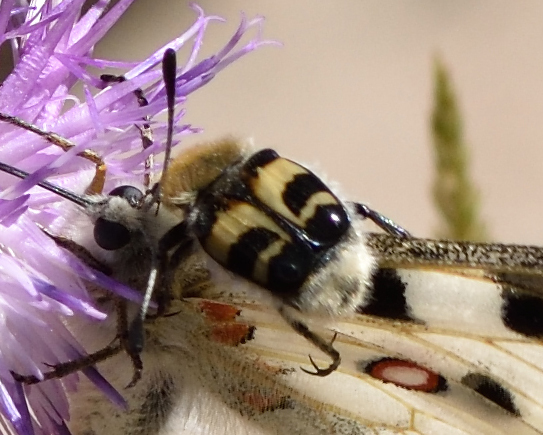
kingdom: Animalia
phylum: Arthropoda
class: Insecta
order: Coleoptera
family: Scarabaeidae
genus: Trichius
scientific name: Trichius fasciatus
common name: Bee beetle
